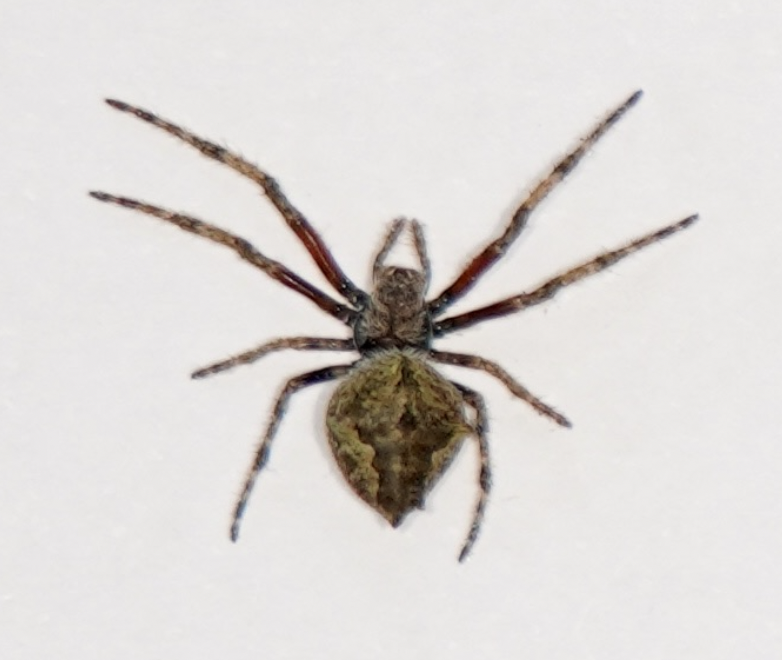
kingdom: Animalia
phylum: Arthropoda
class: Arachnida
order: Araneae
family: Araneidae
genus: Eriophora
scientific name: Eriophora pustulosa
